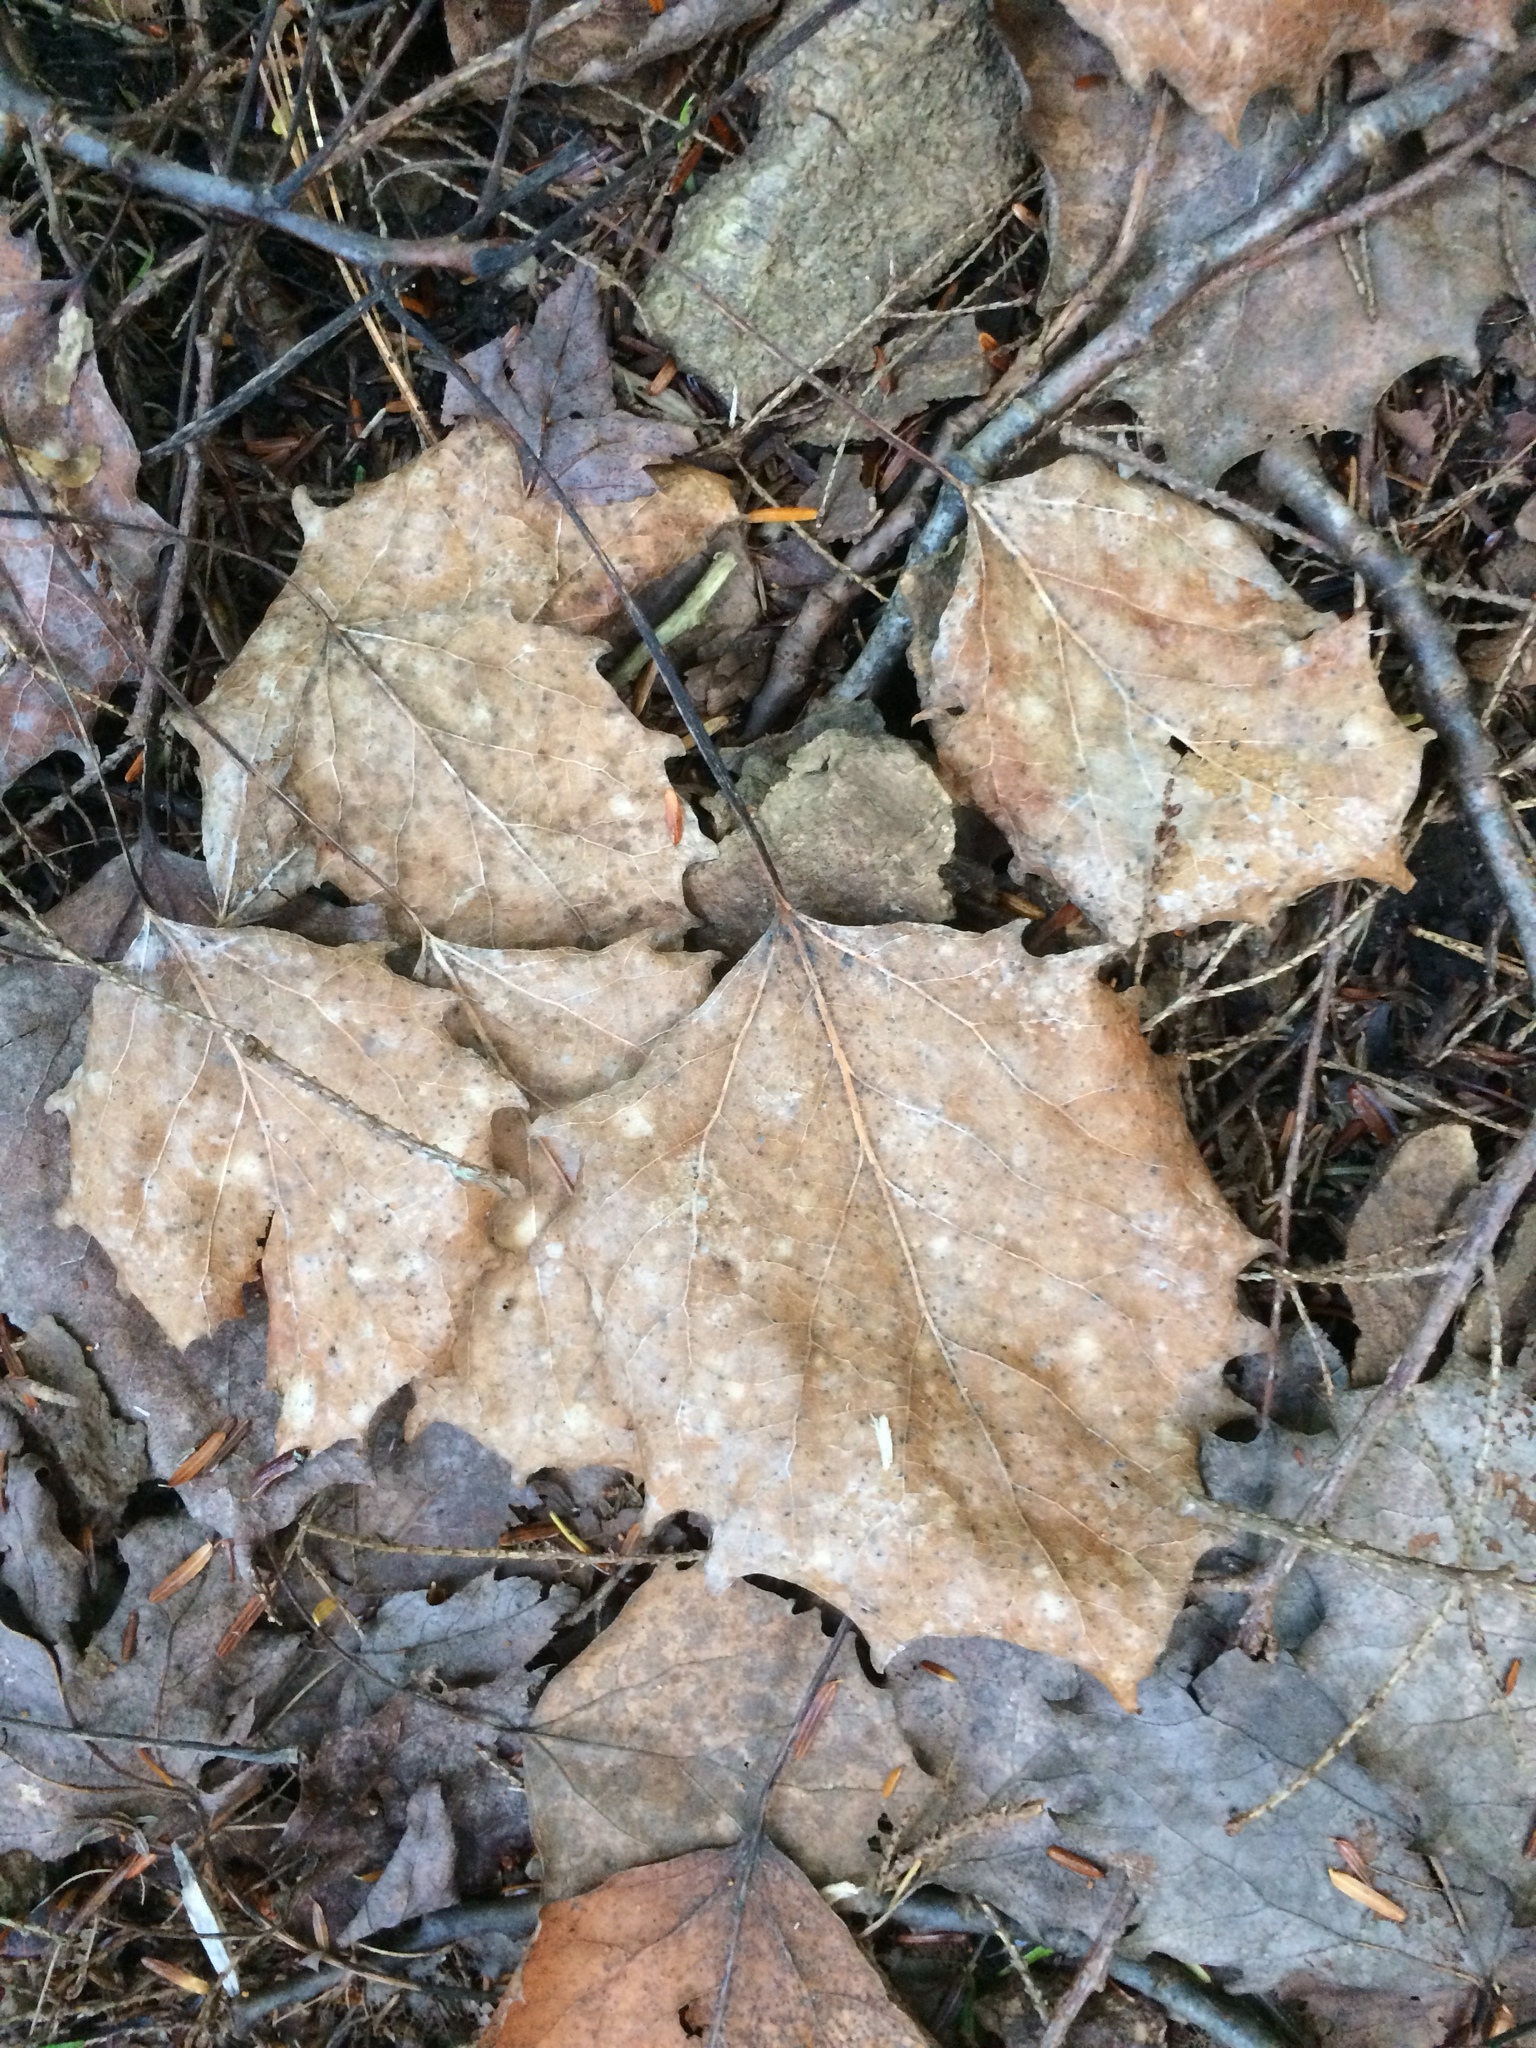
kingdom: Plantae
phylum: Tracheophyta
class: Magnoliopsida
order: Malpighiales
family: Salicaceae
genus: Populus
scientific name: Populus grandidentata
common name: Bigtooth aspen
